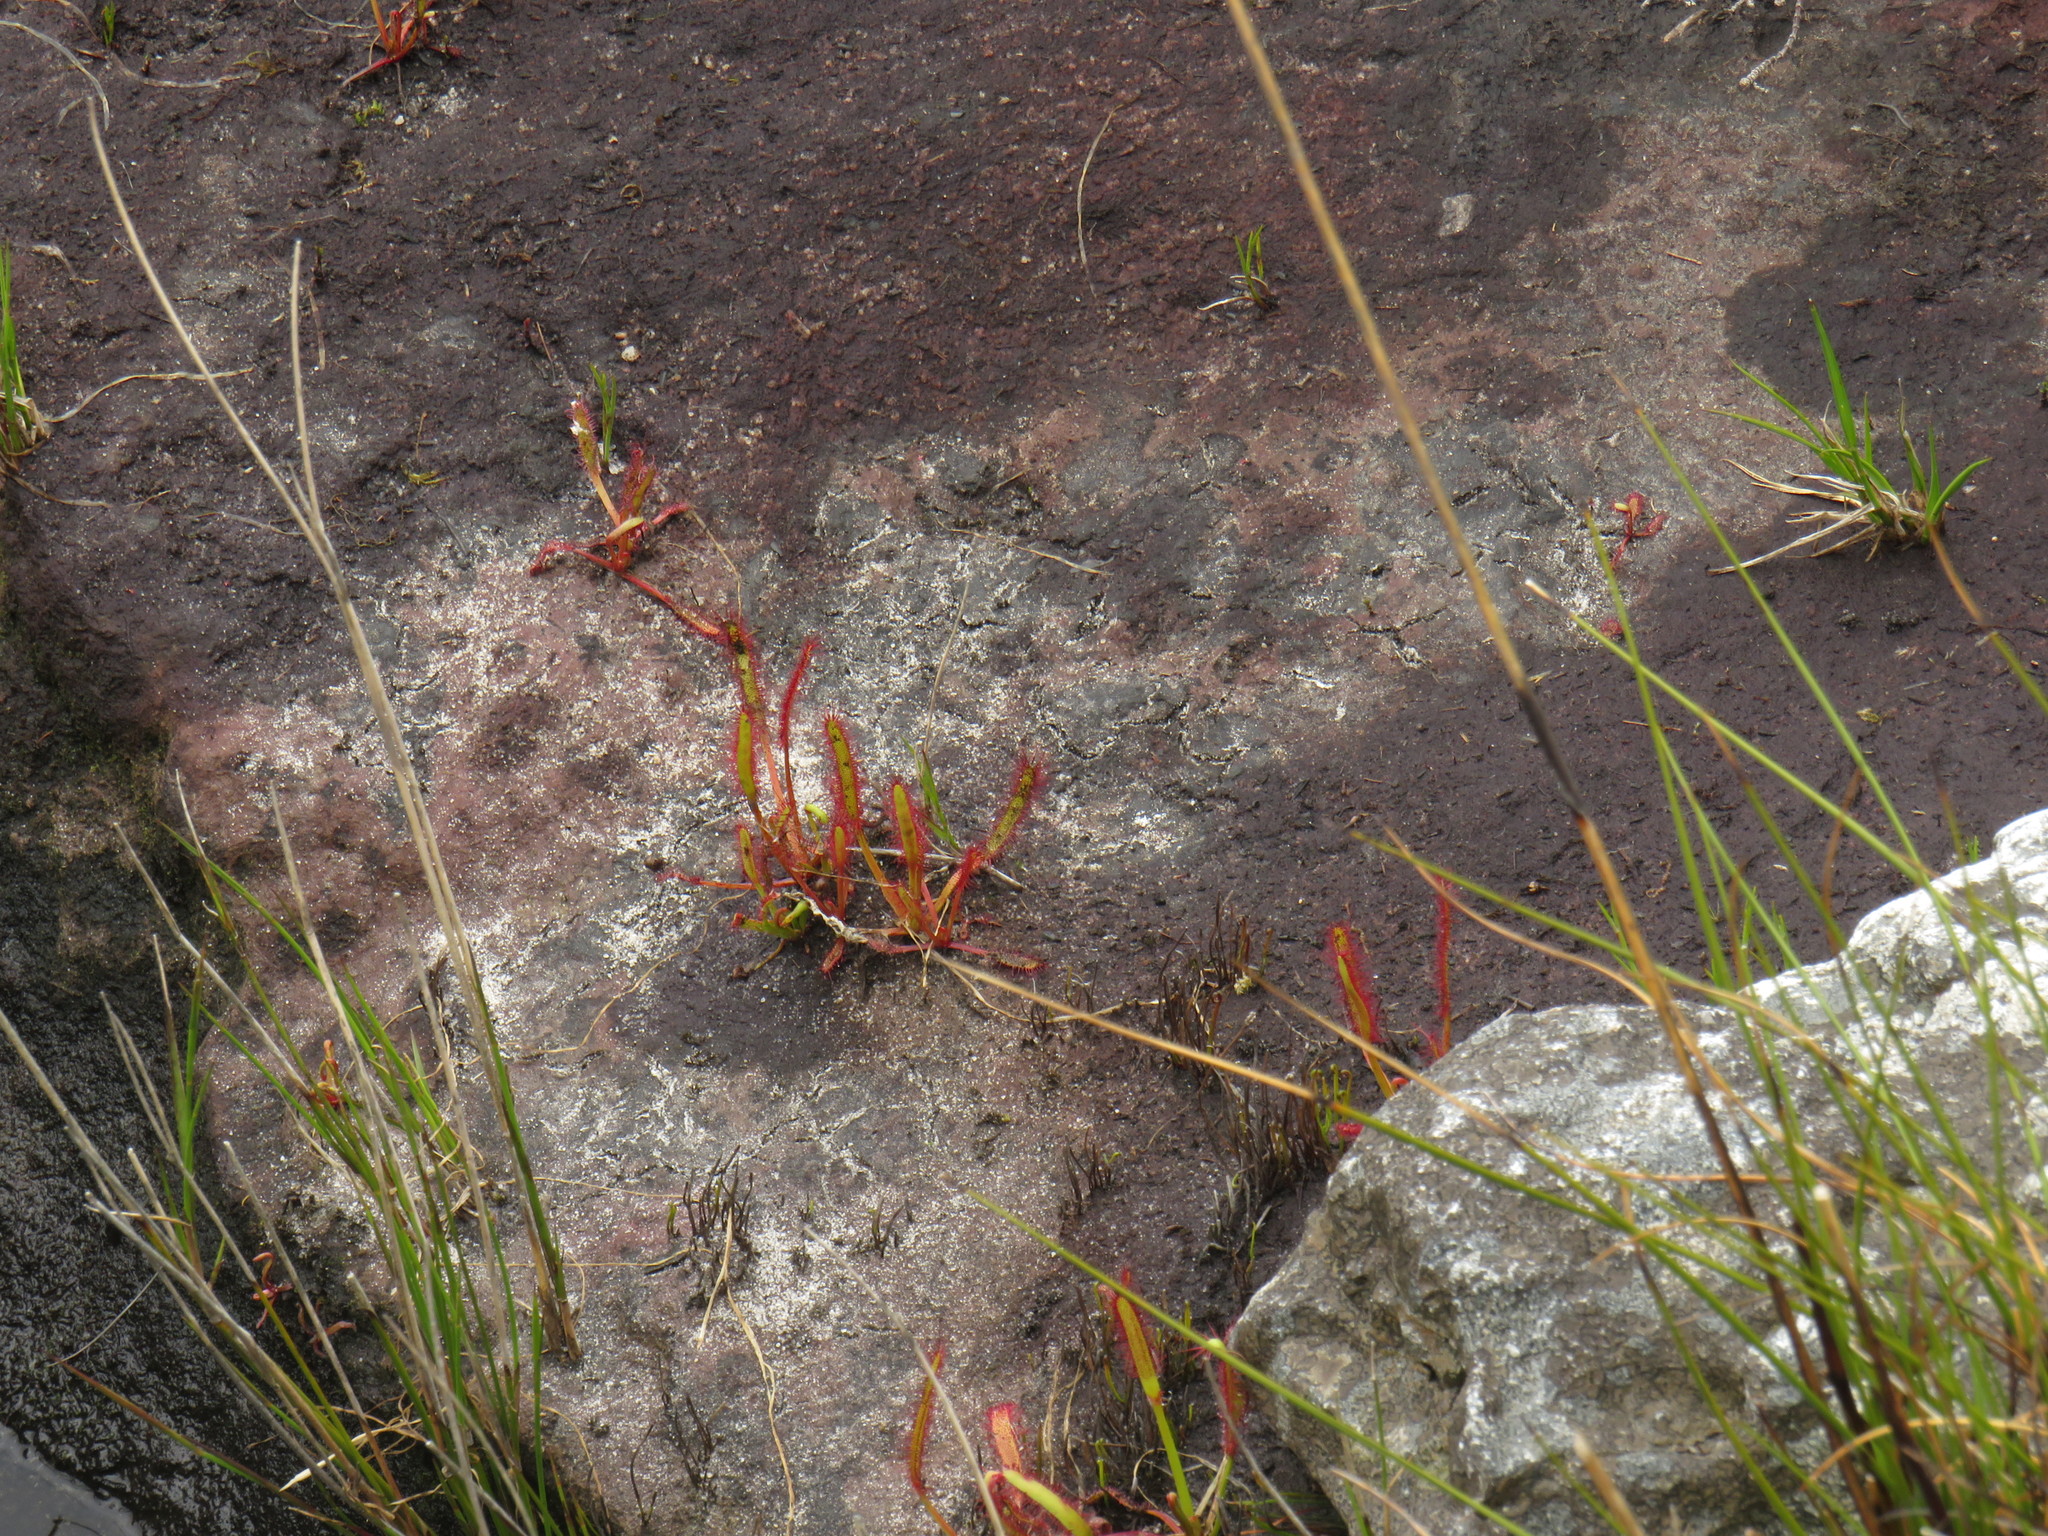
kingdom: Plantae
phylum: Tracheophyta
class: Magnoliopsida
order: Caryophyllales
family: Droseraceae
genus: Drosera
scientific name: Drosera capensis
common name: Cape sundew
